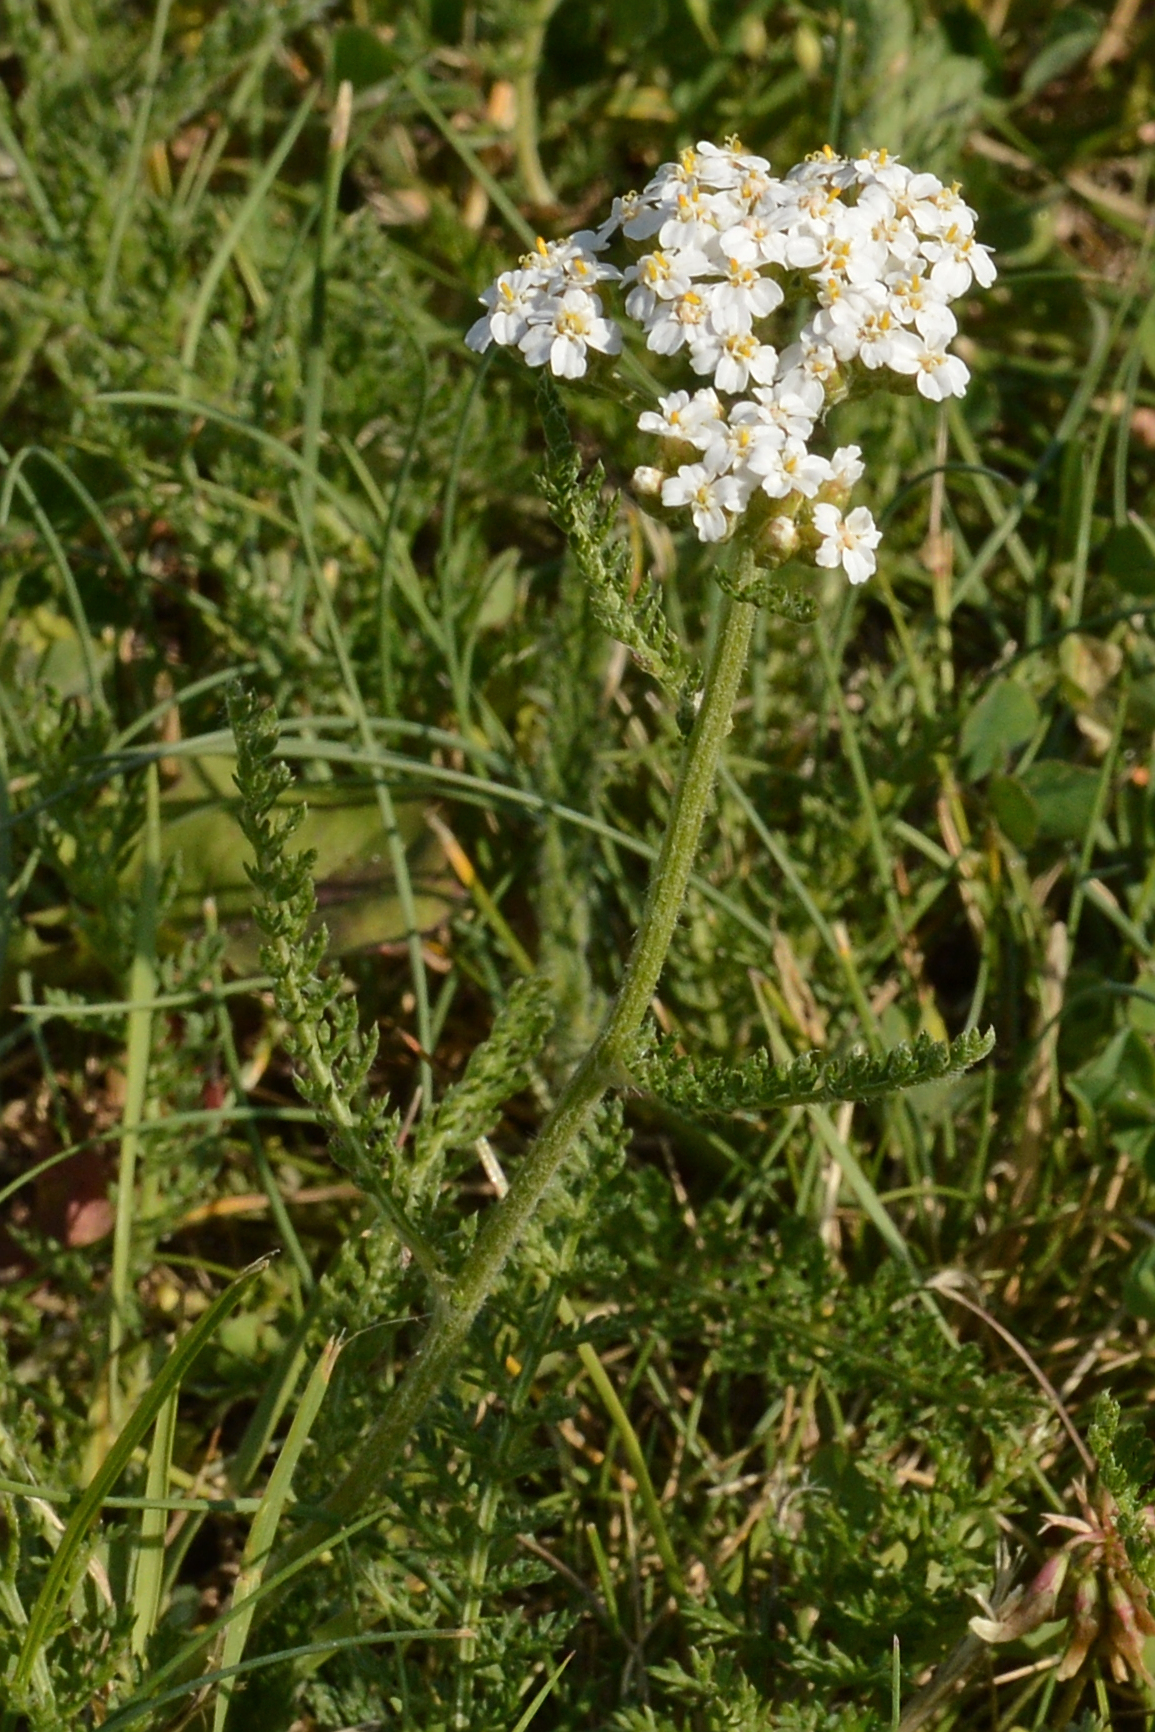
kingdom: Plantae
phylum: Tracheophyta
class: Magnoliopsida
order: Asterales
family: Asteraceae
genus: Achillea
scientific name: Achillea millefolium
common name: Yarrow
